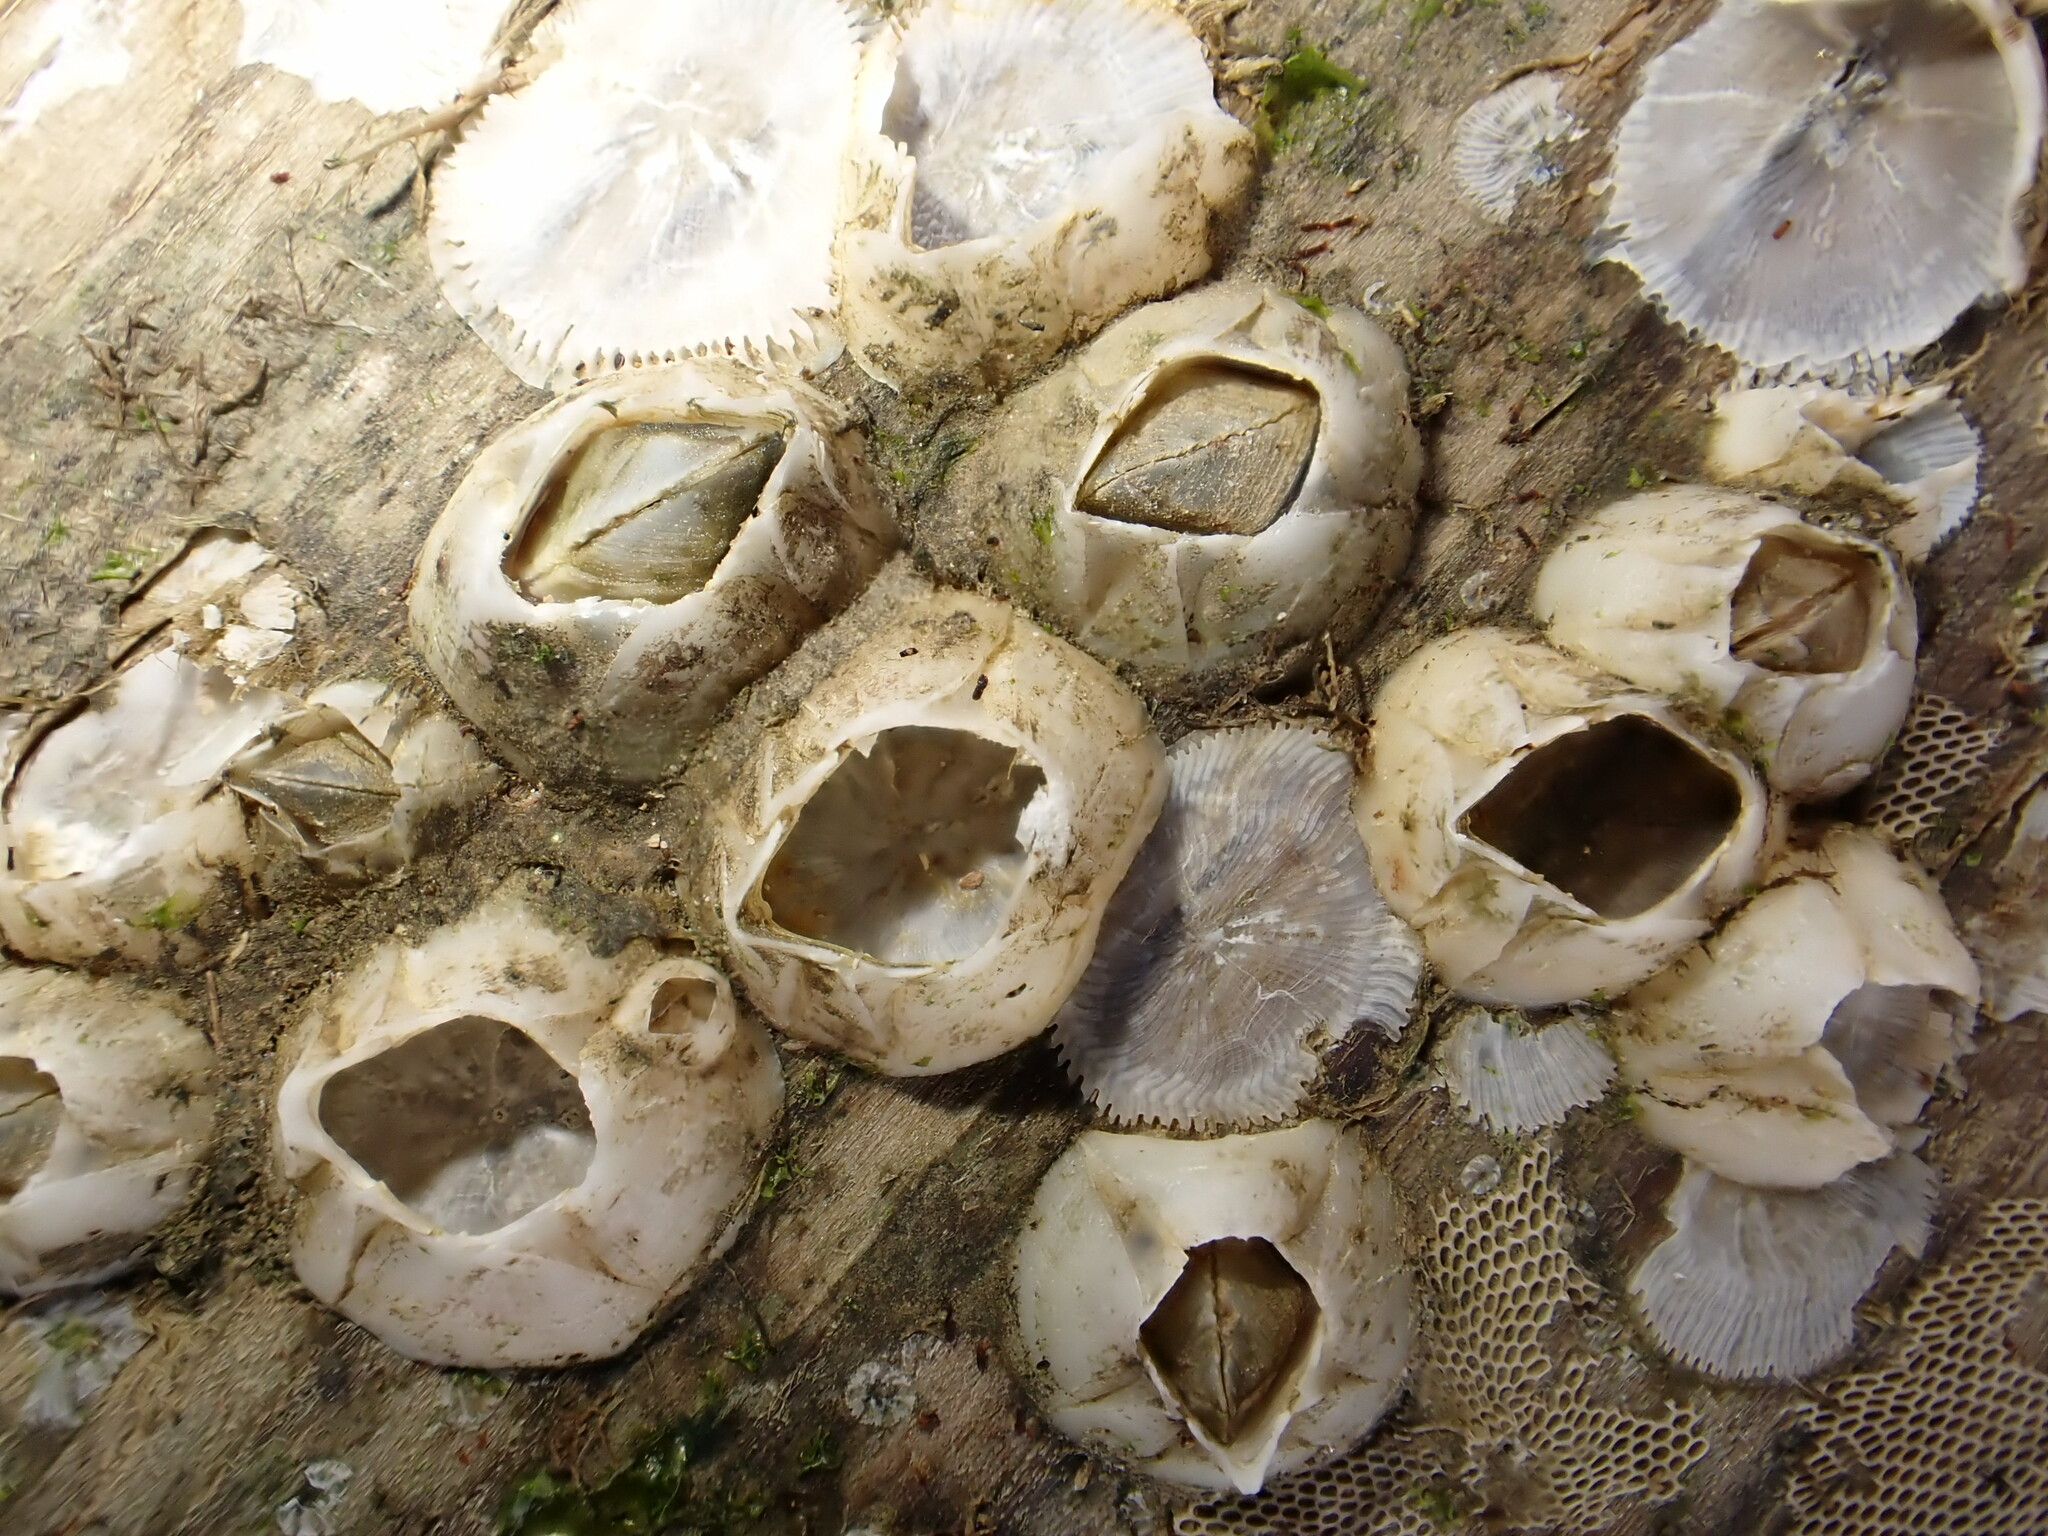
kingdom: Animalia
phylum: Arthropoda
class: Maxillopoda
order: Sessilia
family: Balanidae
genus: Amphibalanus
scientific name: Amphibalanus improvisus
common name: Bay barnacle
